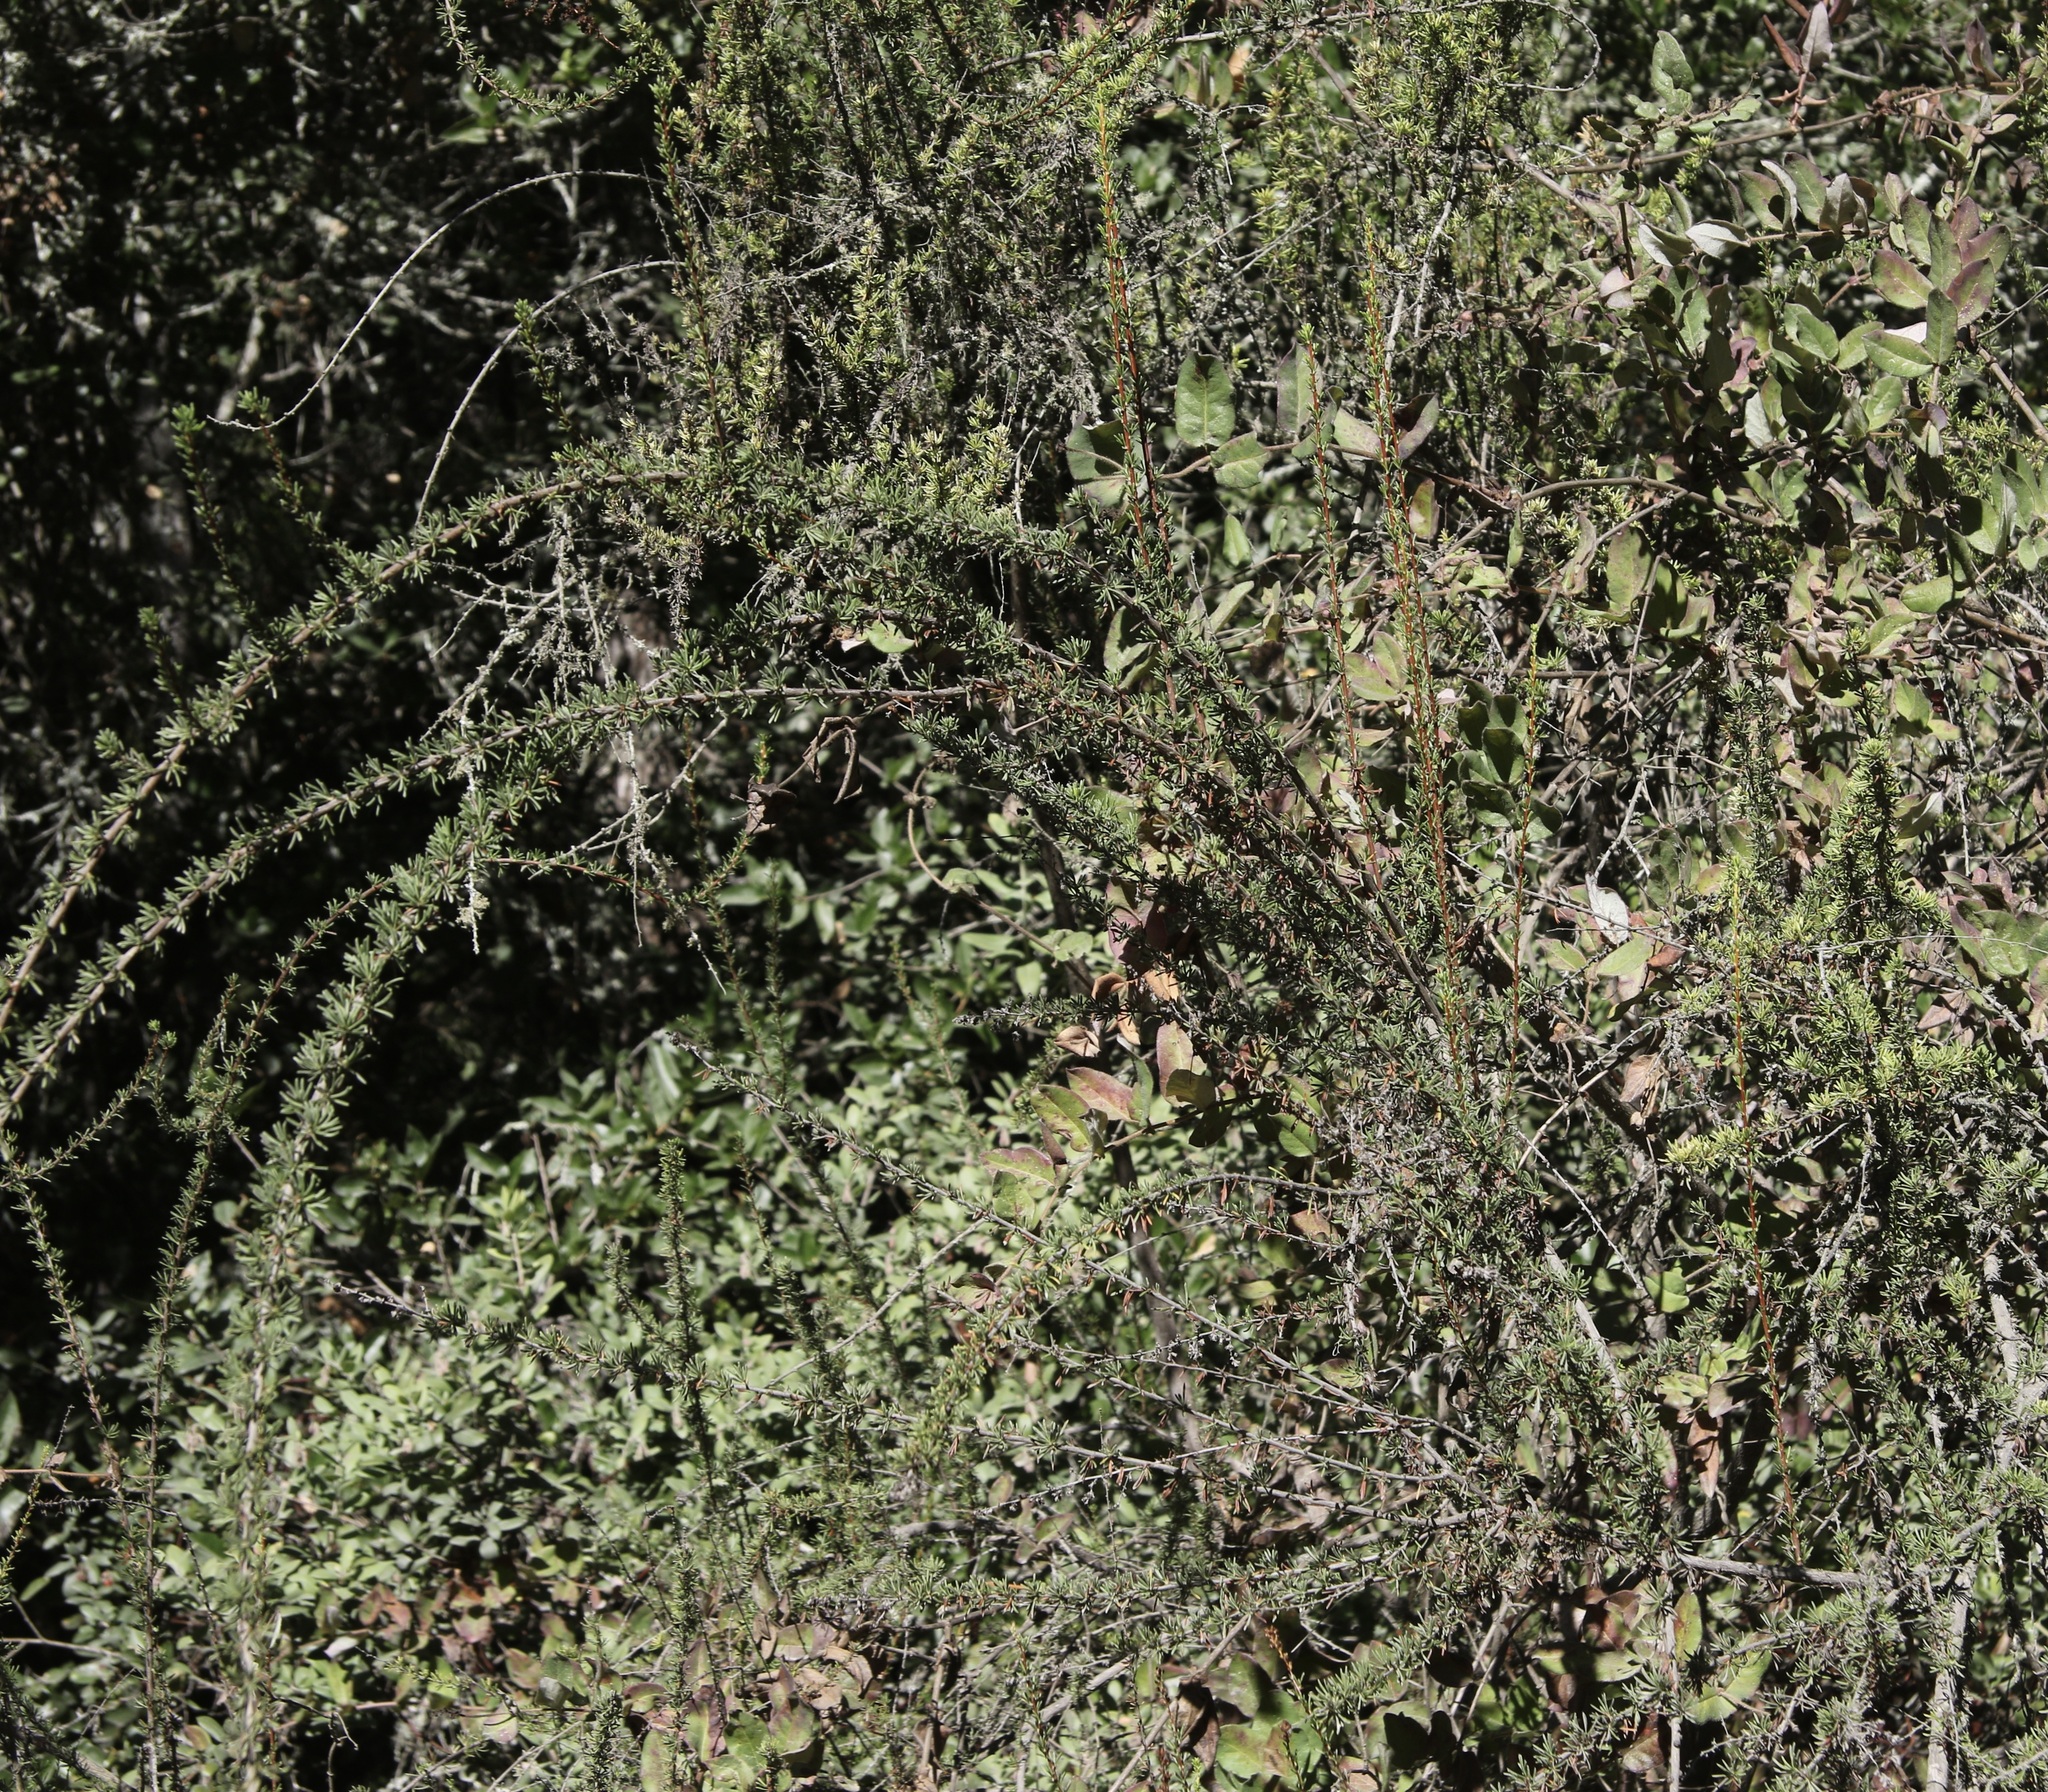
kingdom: Plantae
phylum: Tracheophyta
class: Magnoliopsida
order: Rosales
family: Rosaceae
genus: Adenostoma
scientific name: Adenostoma fasciculatum
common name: Chamise
